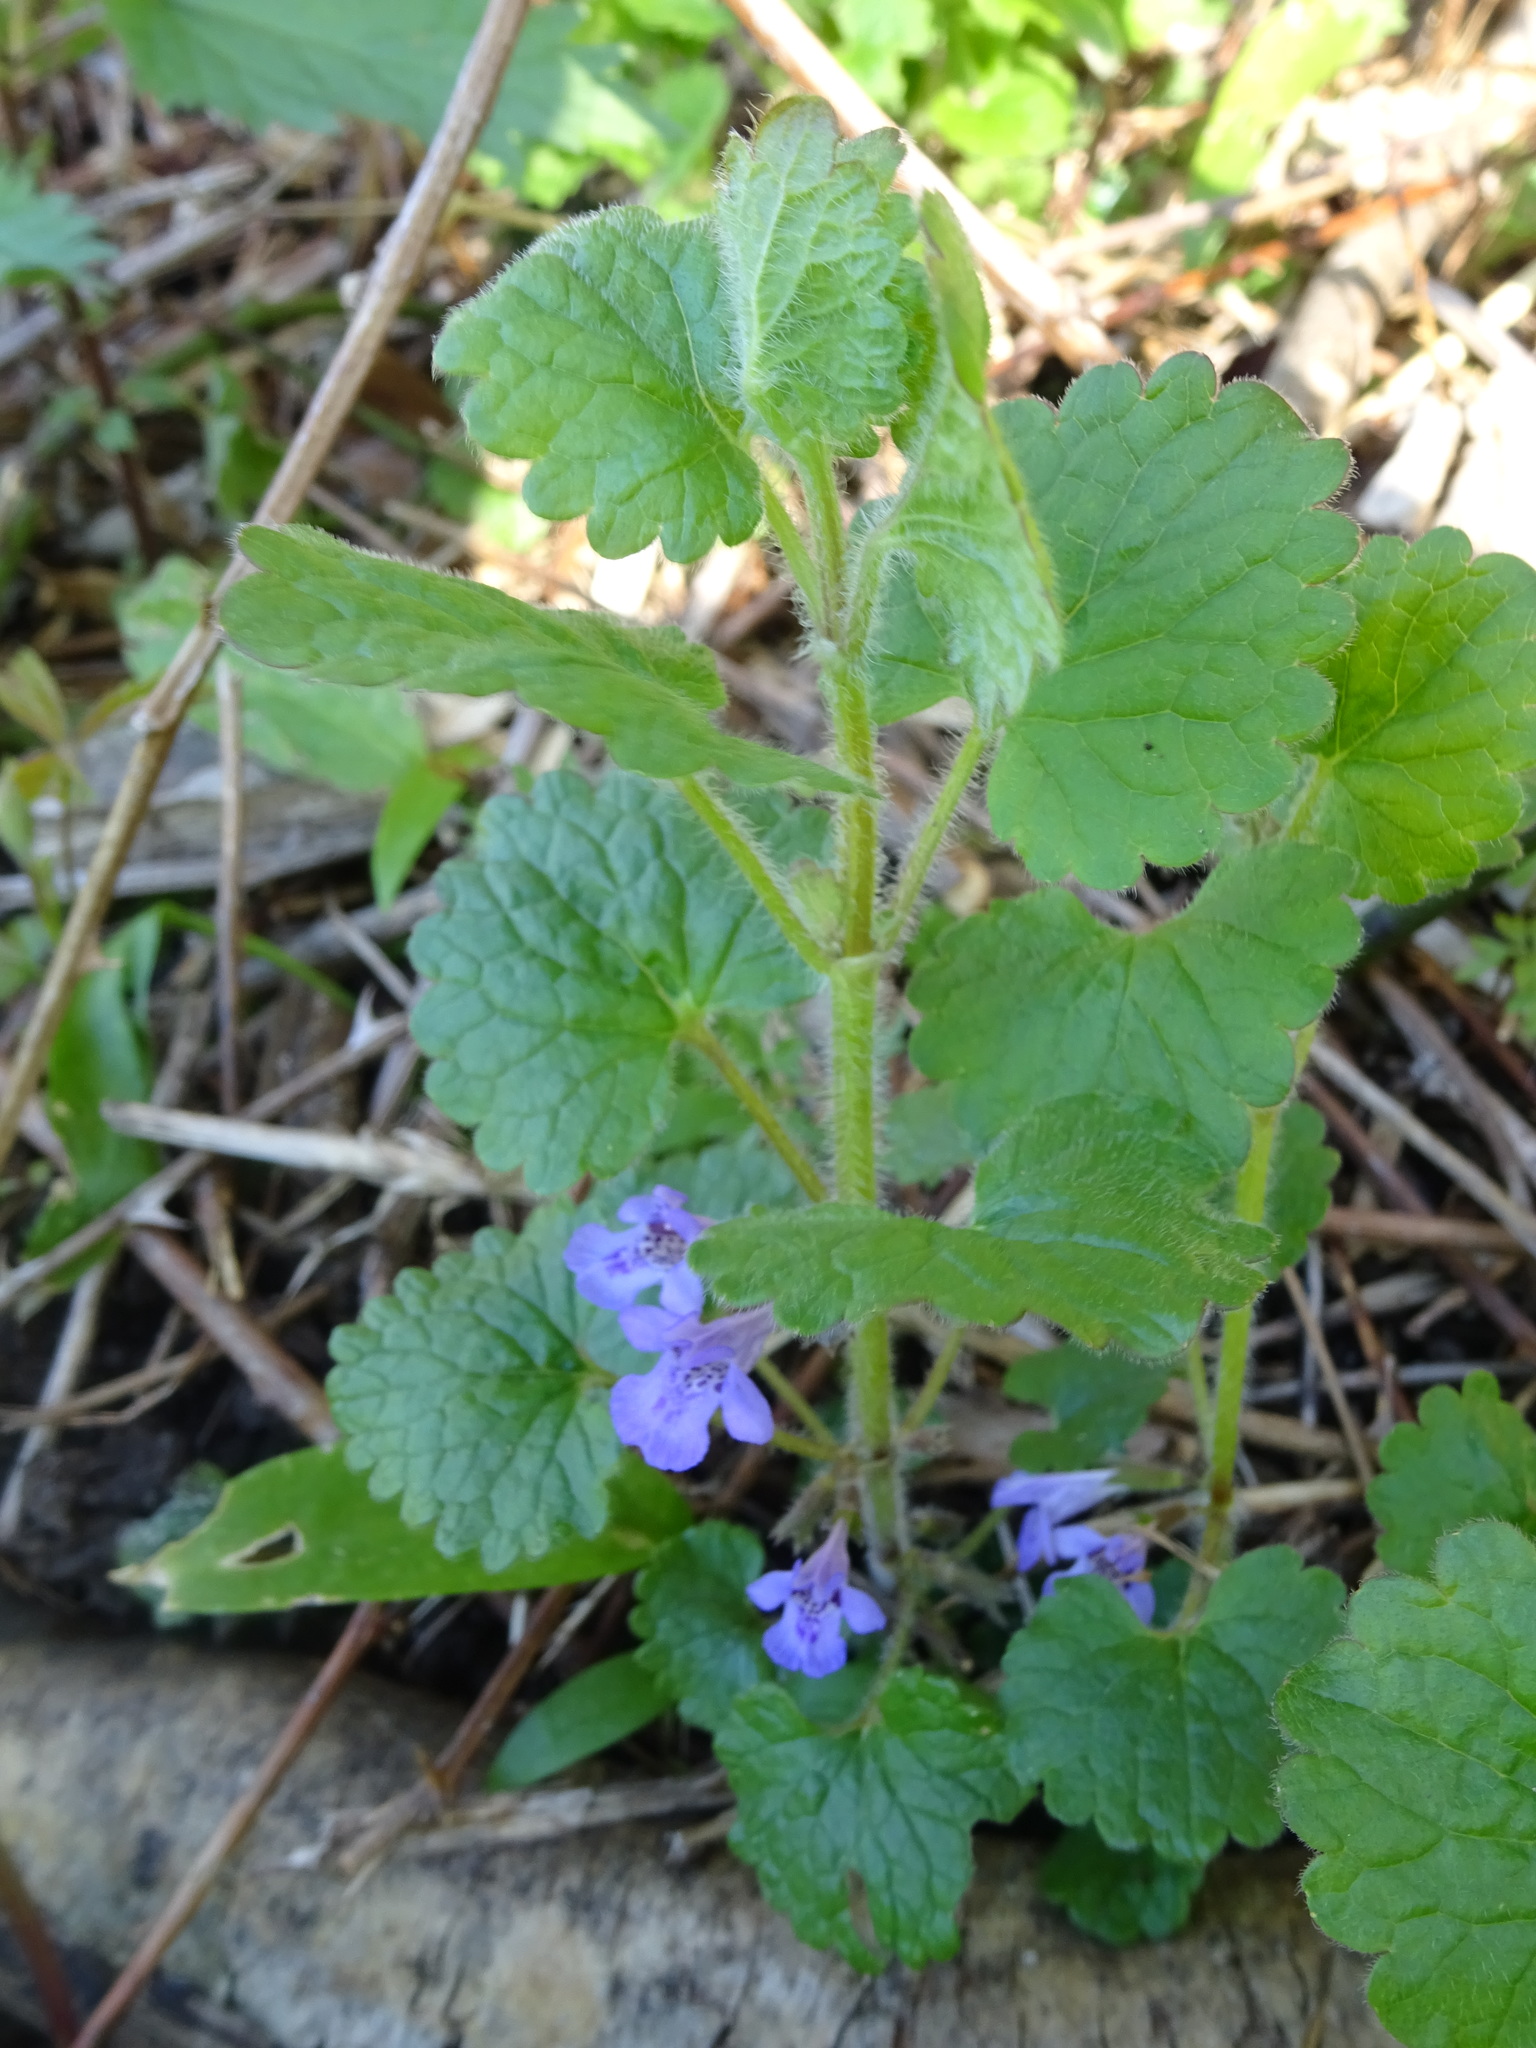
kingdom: Plantae
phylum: Tracheophyta
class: Magnoliopsida
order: Lamiales
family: Lamiaceae
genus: Glechoma
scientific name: Glechoma hederacea
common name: Ground ivy
